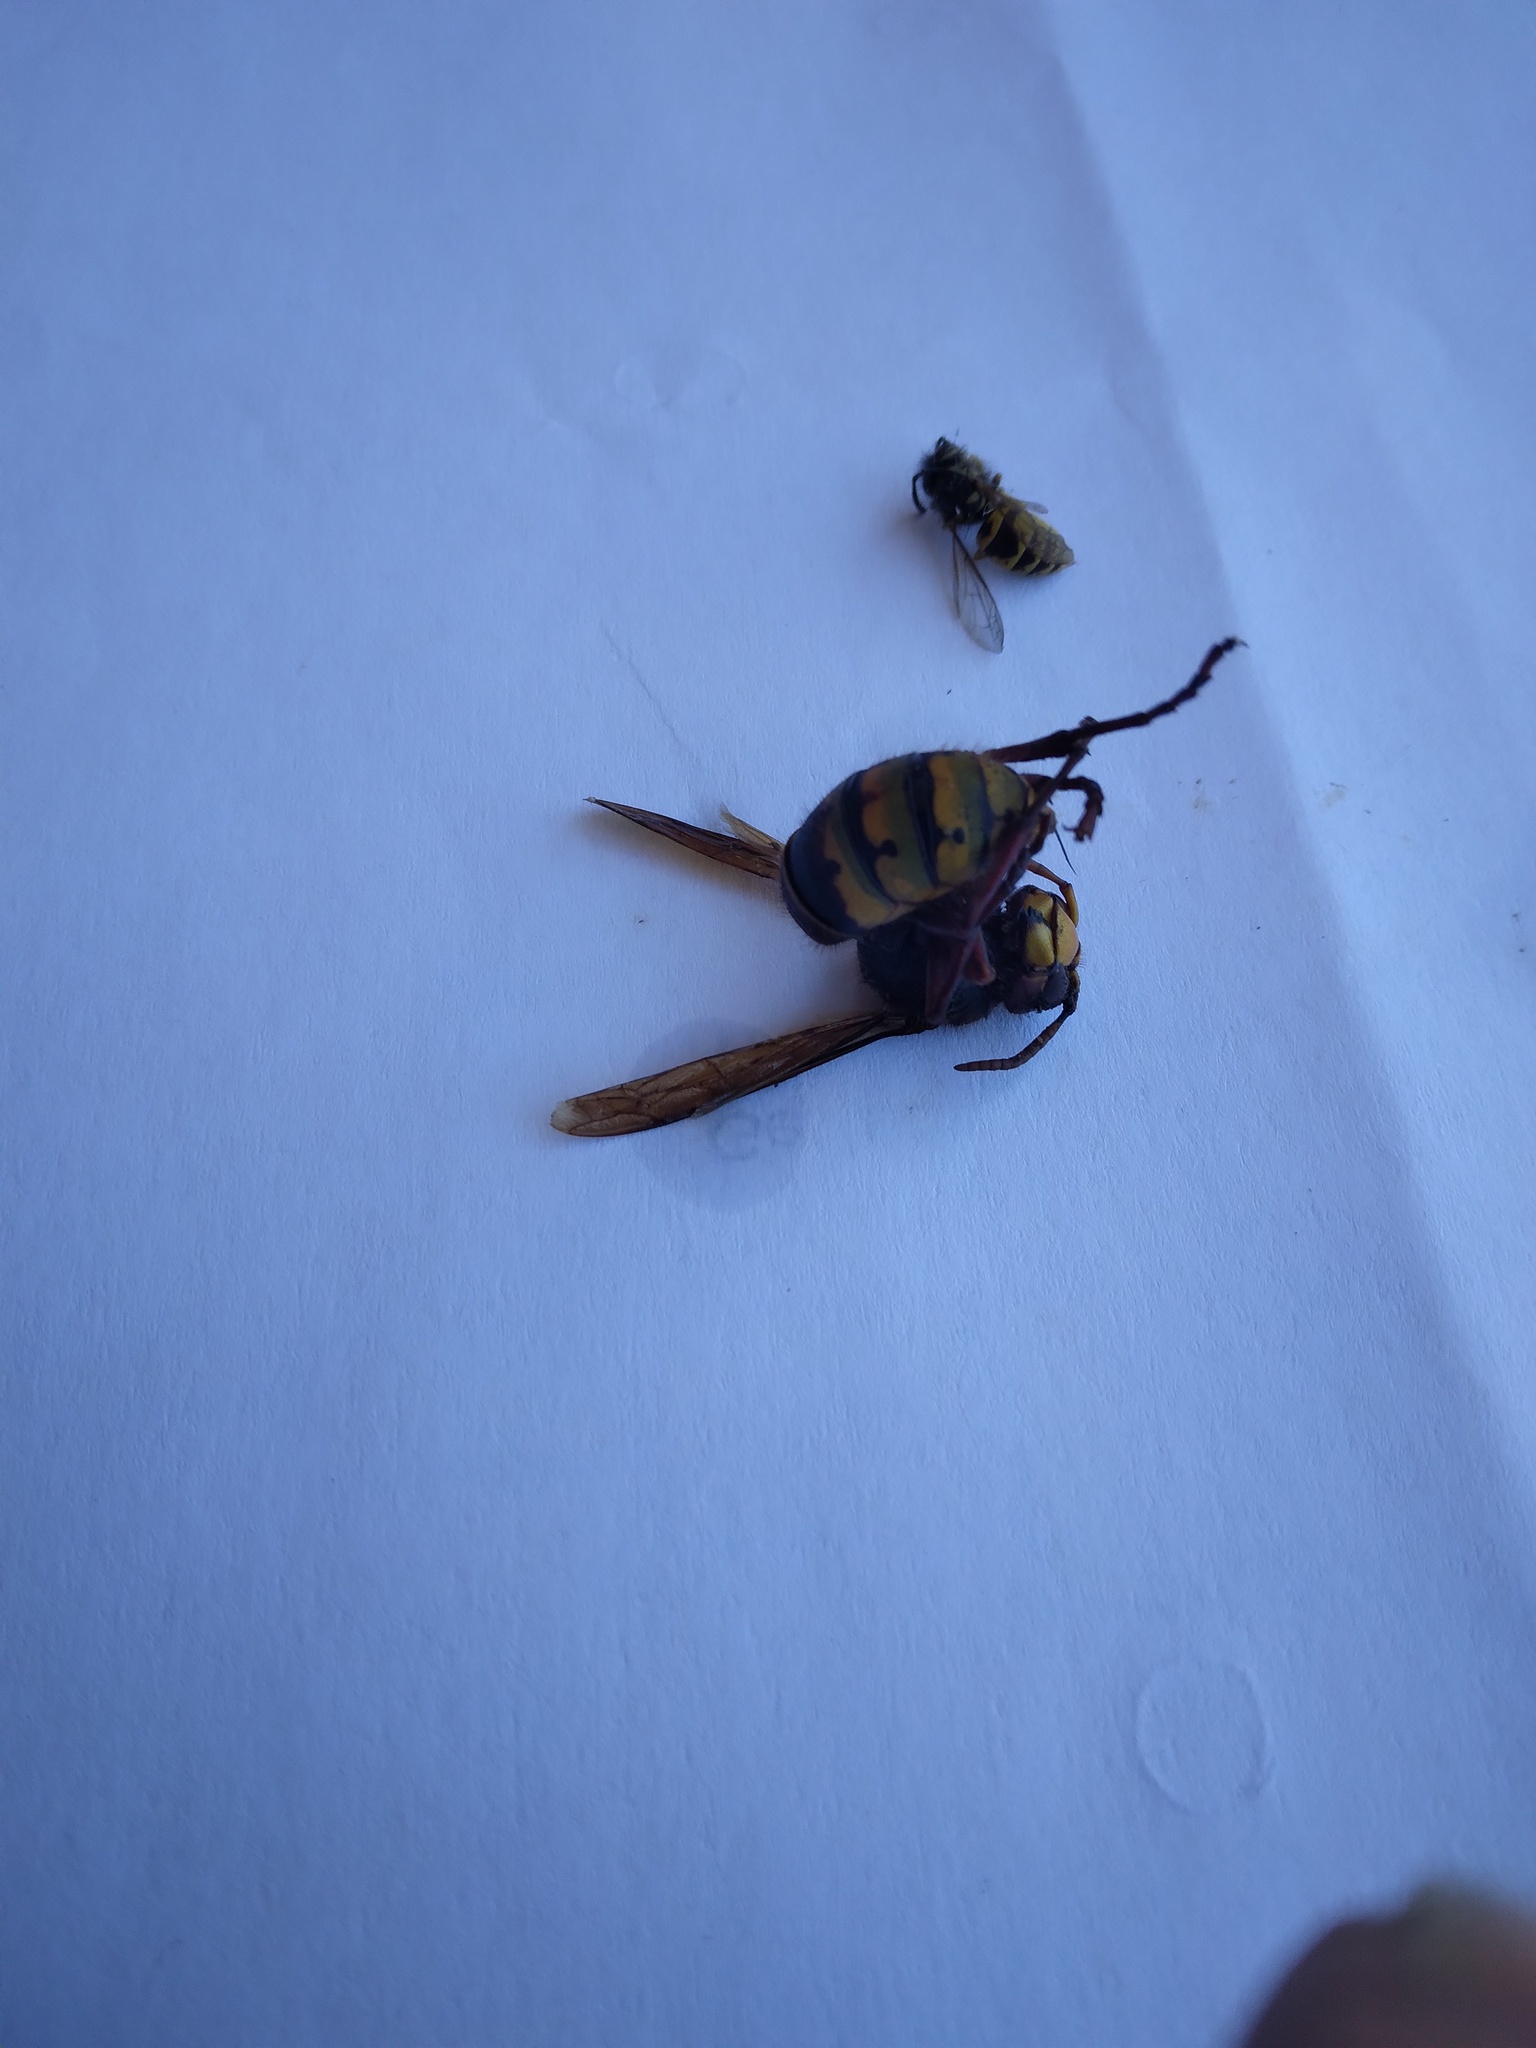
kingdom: Animalia
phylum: Arthropoda
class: Insecta
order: Hymenoptera
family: Vespidae
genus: Vespa
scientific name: Vespa crabro
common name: Hornet
